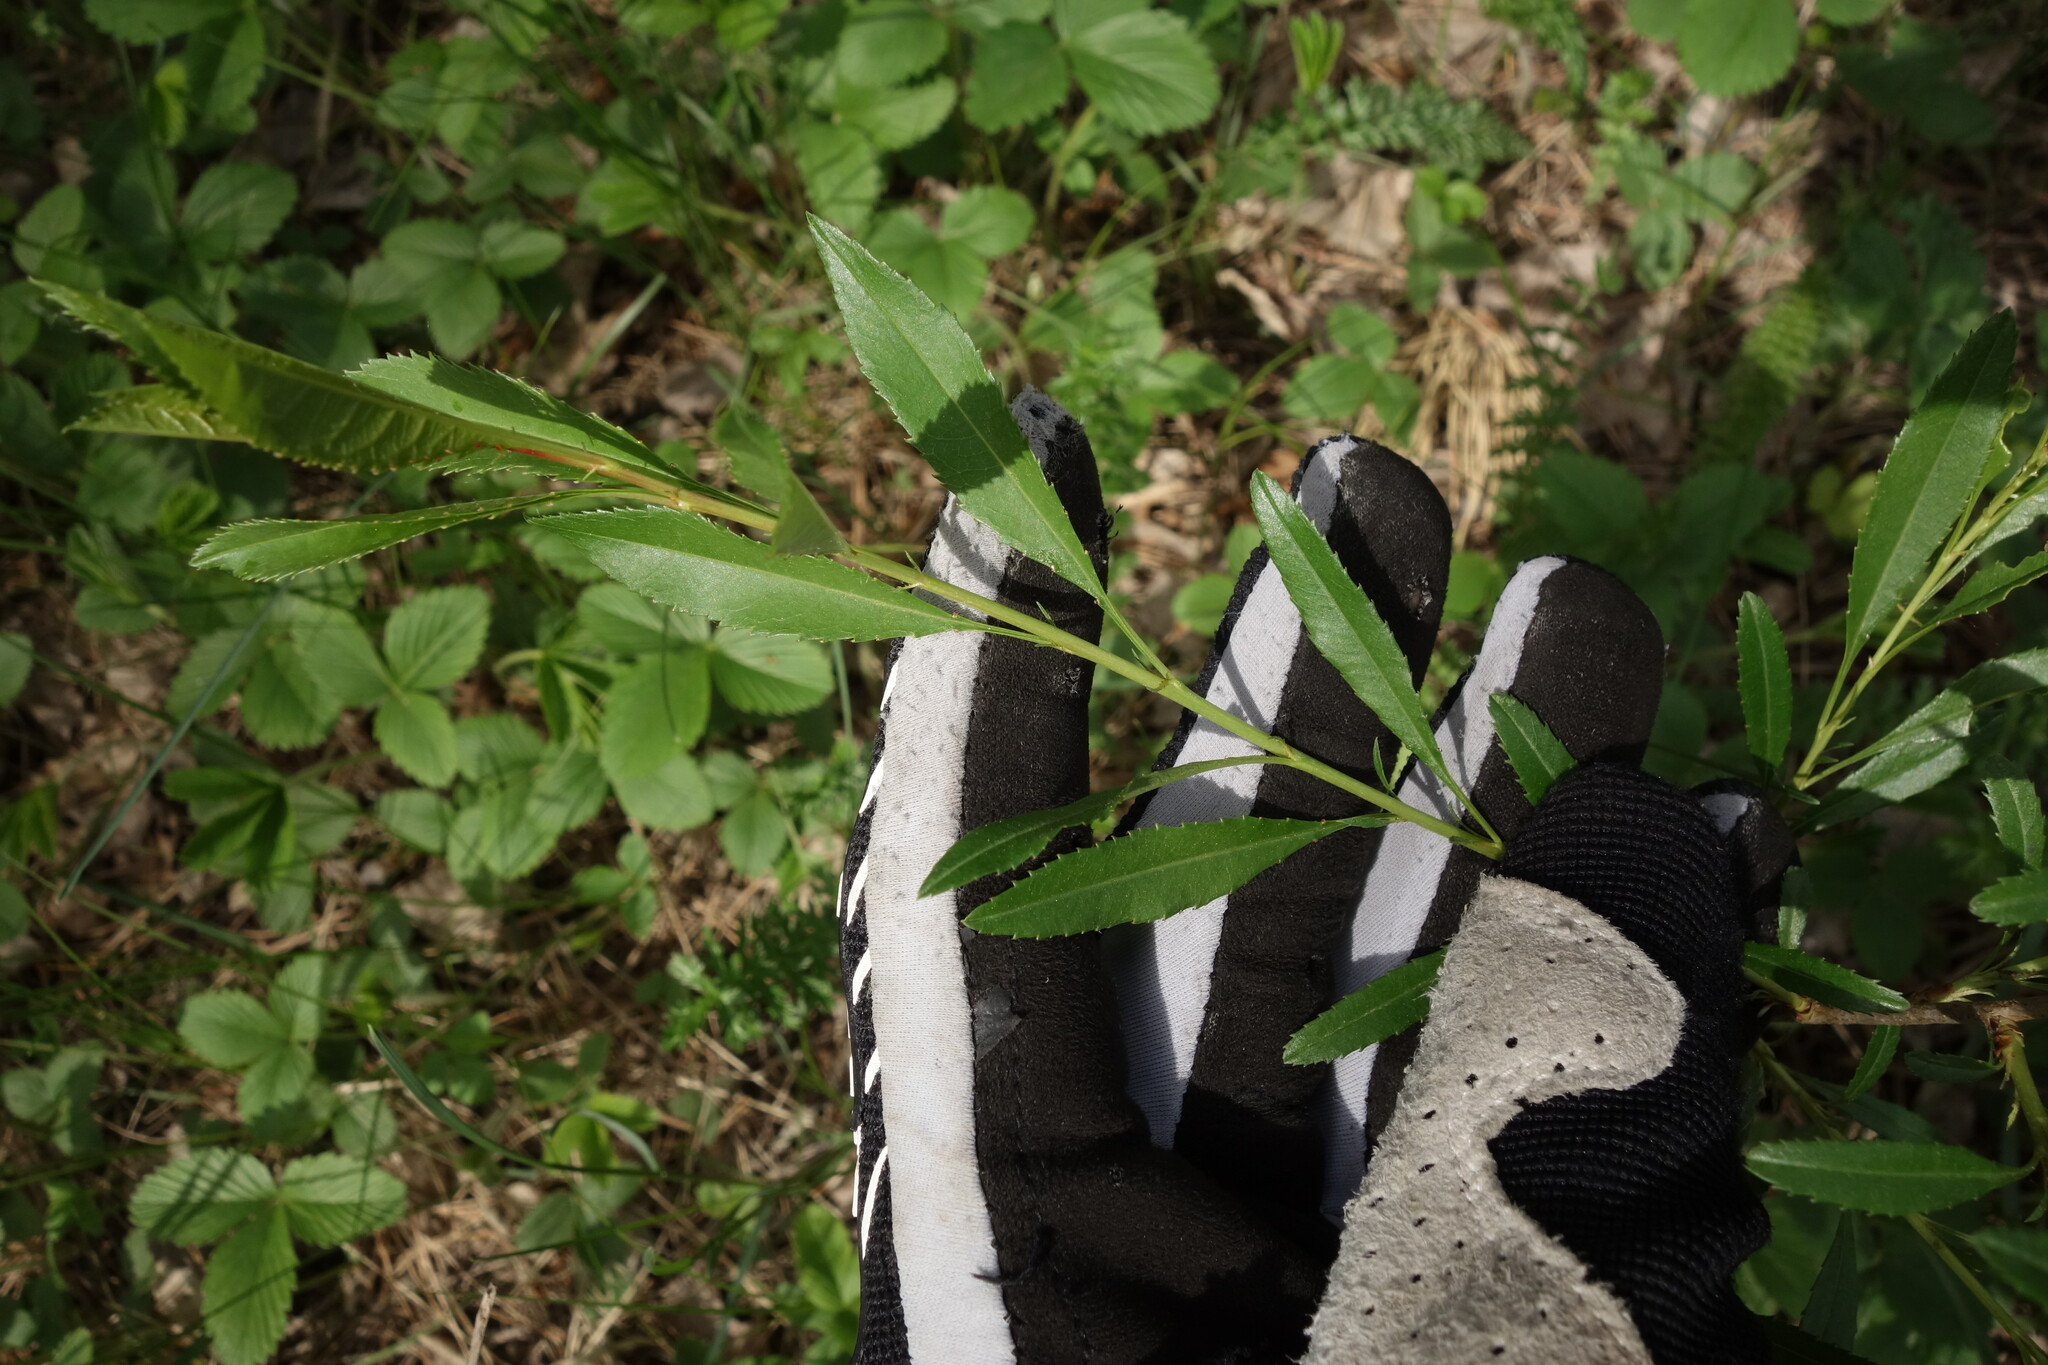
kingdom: Plantae
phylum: Tracheophyta
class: Magnoliopsida
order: Rosales
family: Rosaceae
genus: Prunus
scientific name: Prunus tenella
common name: Dwarf russian almond
